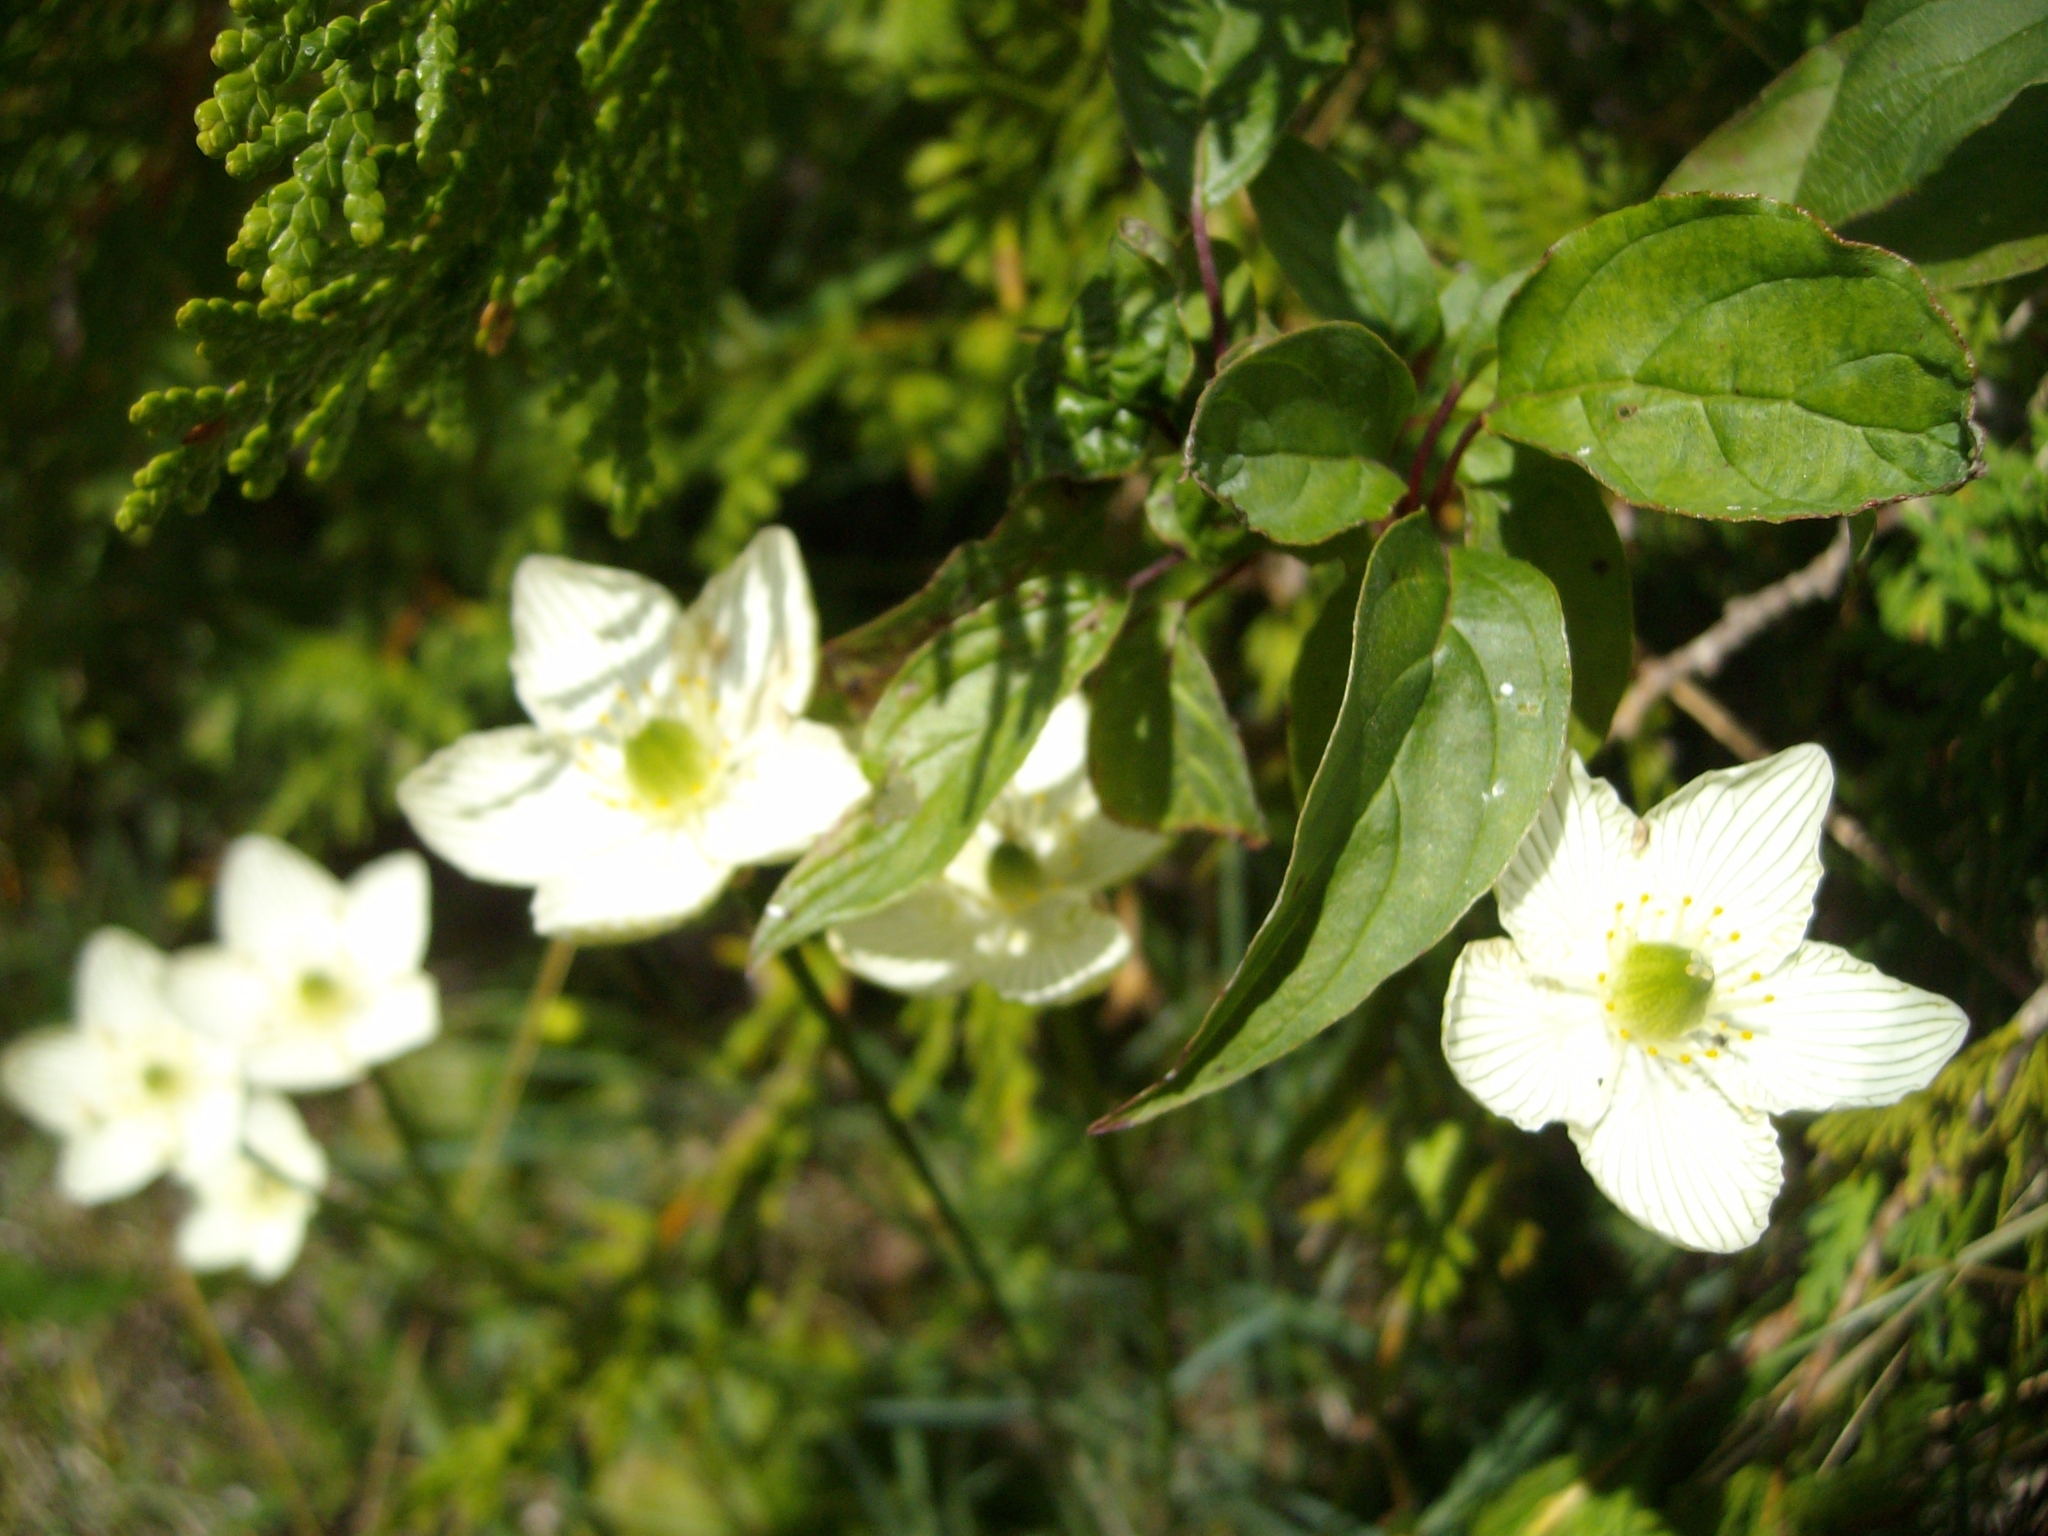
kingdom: Plantae
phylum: Tracheophyta
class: Magnoliopsida
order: Celastrales
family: Parnassiaceae
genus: Parnassia
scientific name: Parnassia glauca
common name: American grass-of-parnassus
